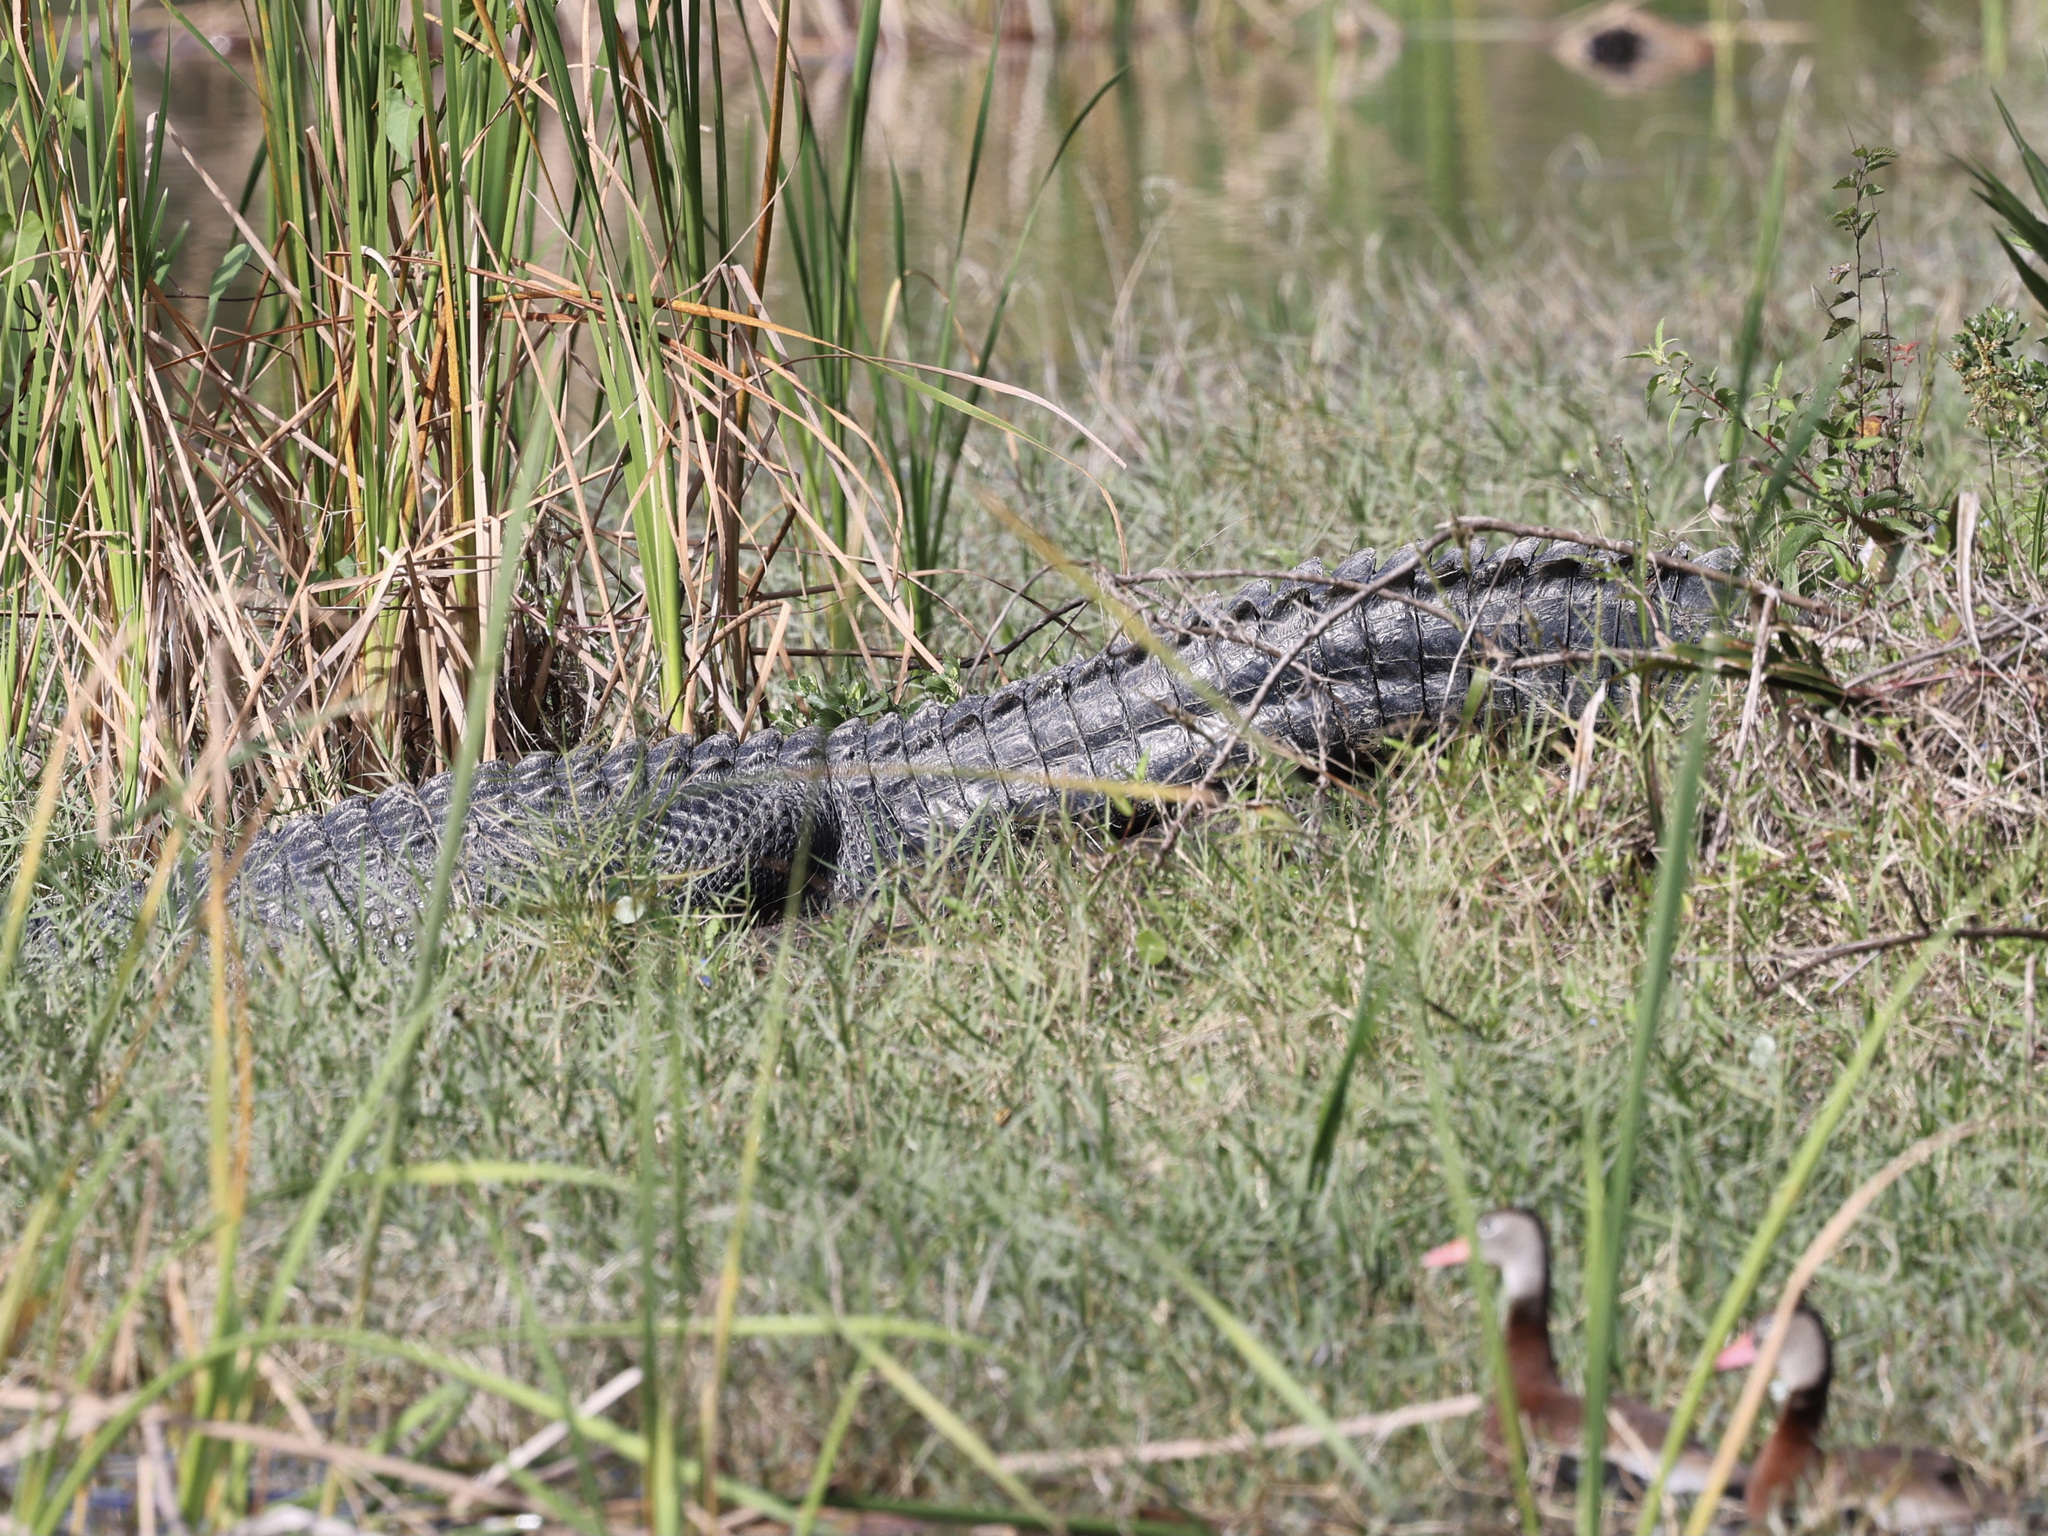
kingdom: Animalia
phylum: Chordata
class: Crocodylia
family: Alligatoridae
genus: Alligator
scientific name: Alligator mississippiensis
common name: American alligator
